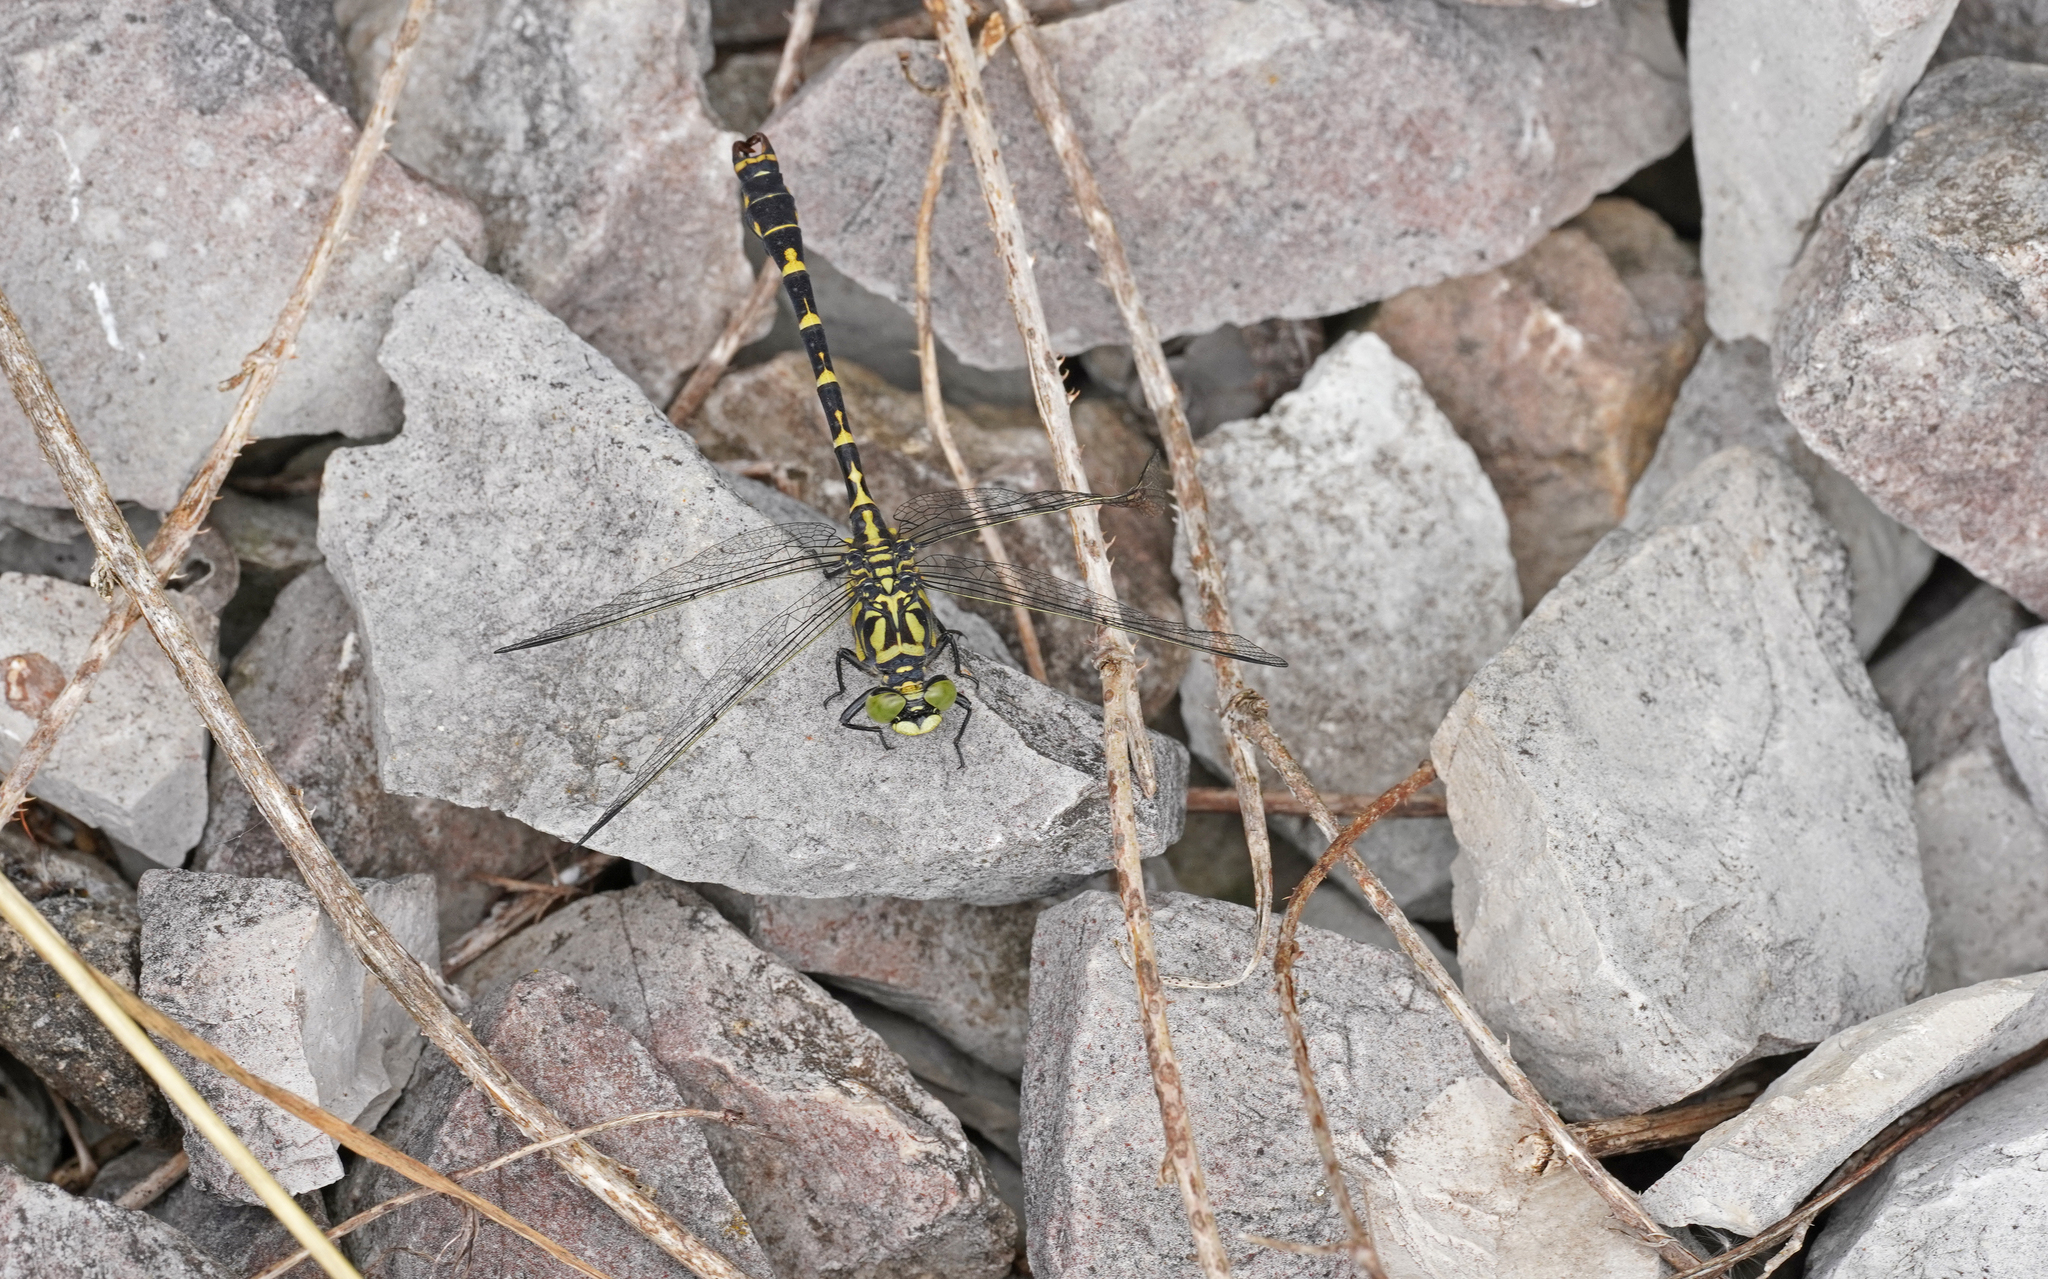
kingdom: Animalia
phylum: Arthropoda
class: Insecta
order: Odonata
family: Gomphidae
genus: Onychogomphus
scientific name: Onychogomphus forcipatus
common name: Small pincertail
